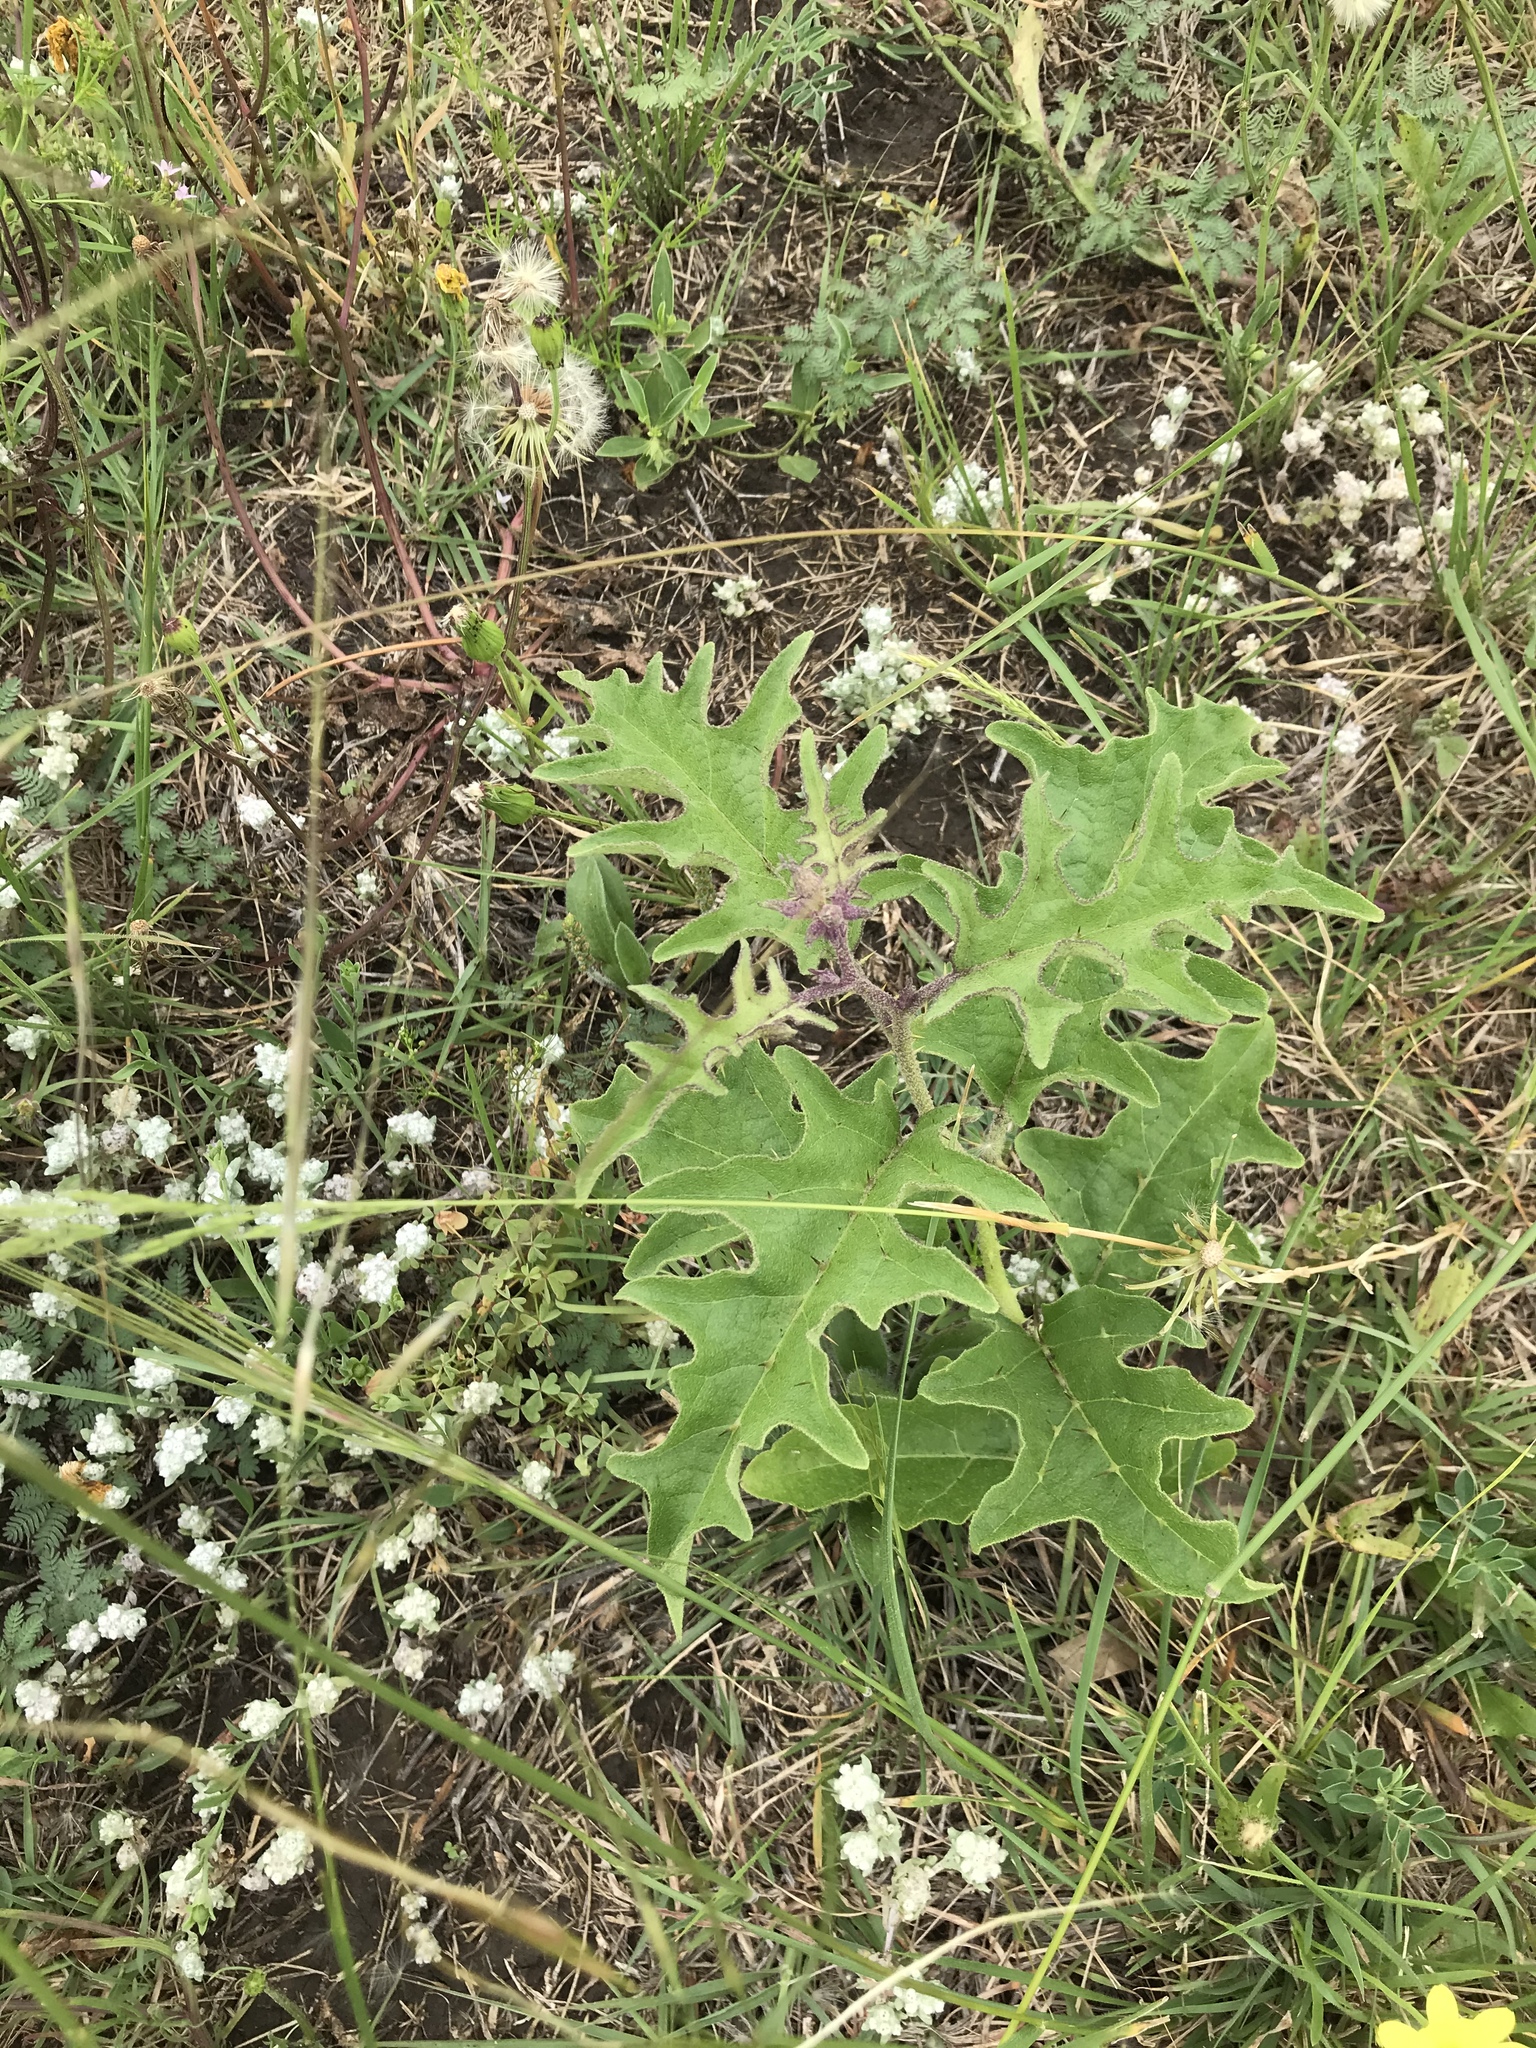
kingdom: Plantae
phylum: Tracheophyta
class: Magnoliopsida
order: Solanales
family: Solanaceae
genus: Solanum
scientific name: Solanum dimidiatum
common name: Carolina horse-nettle
